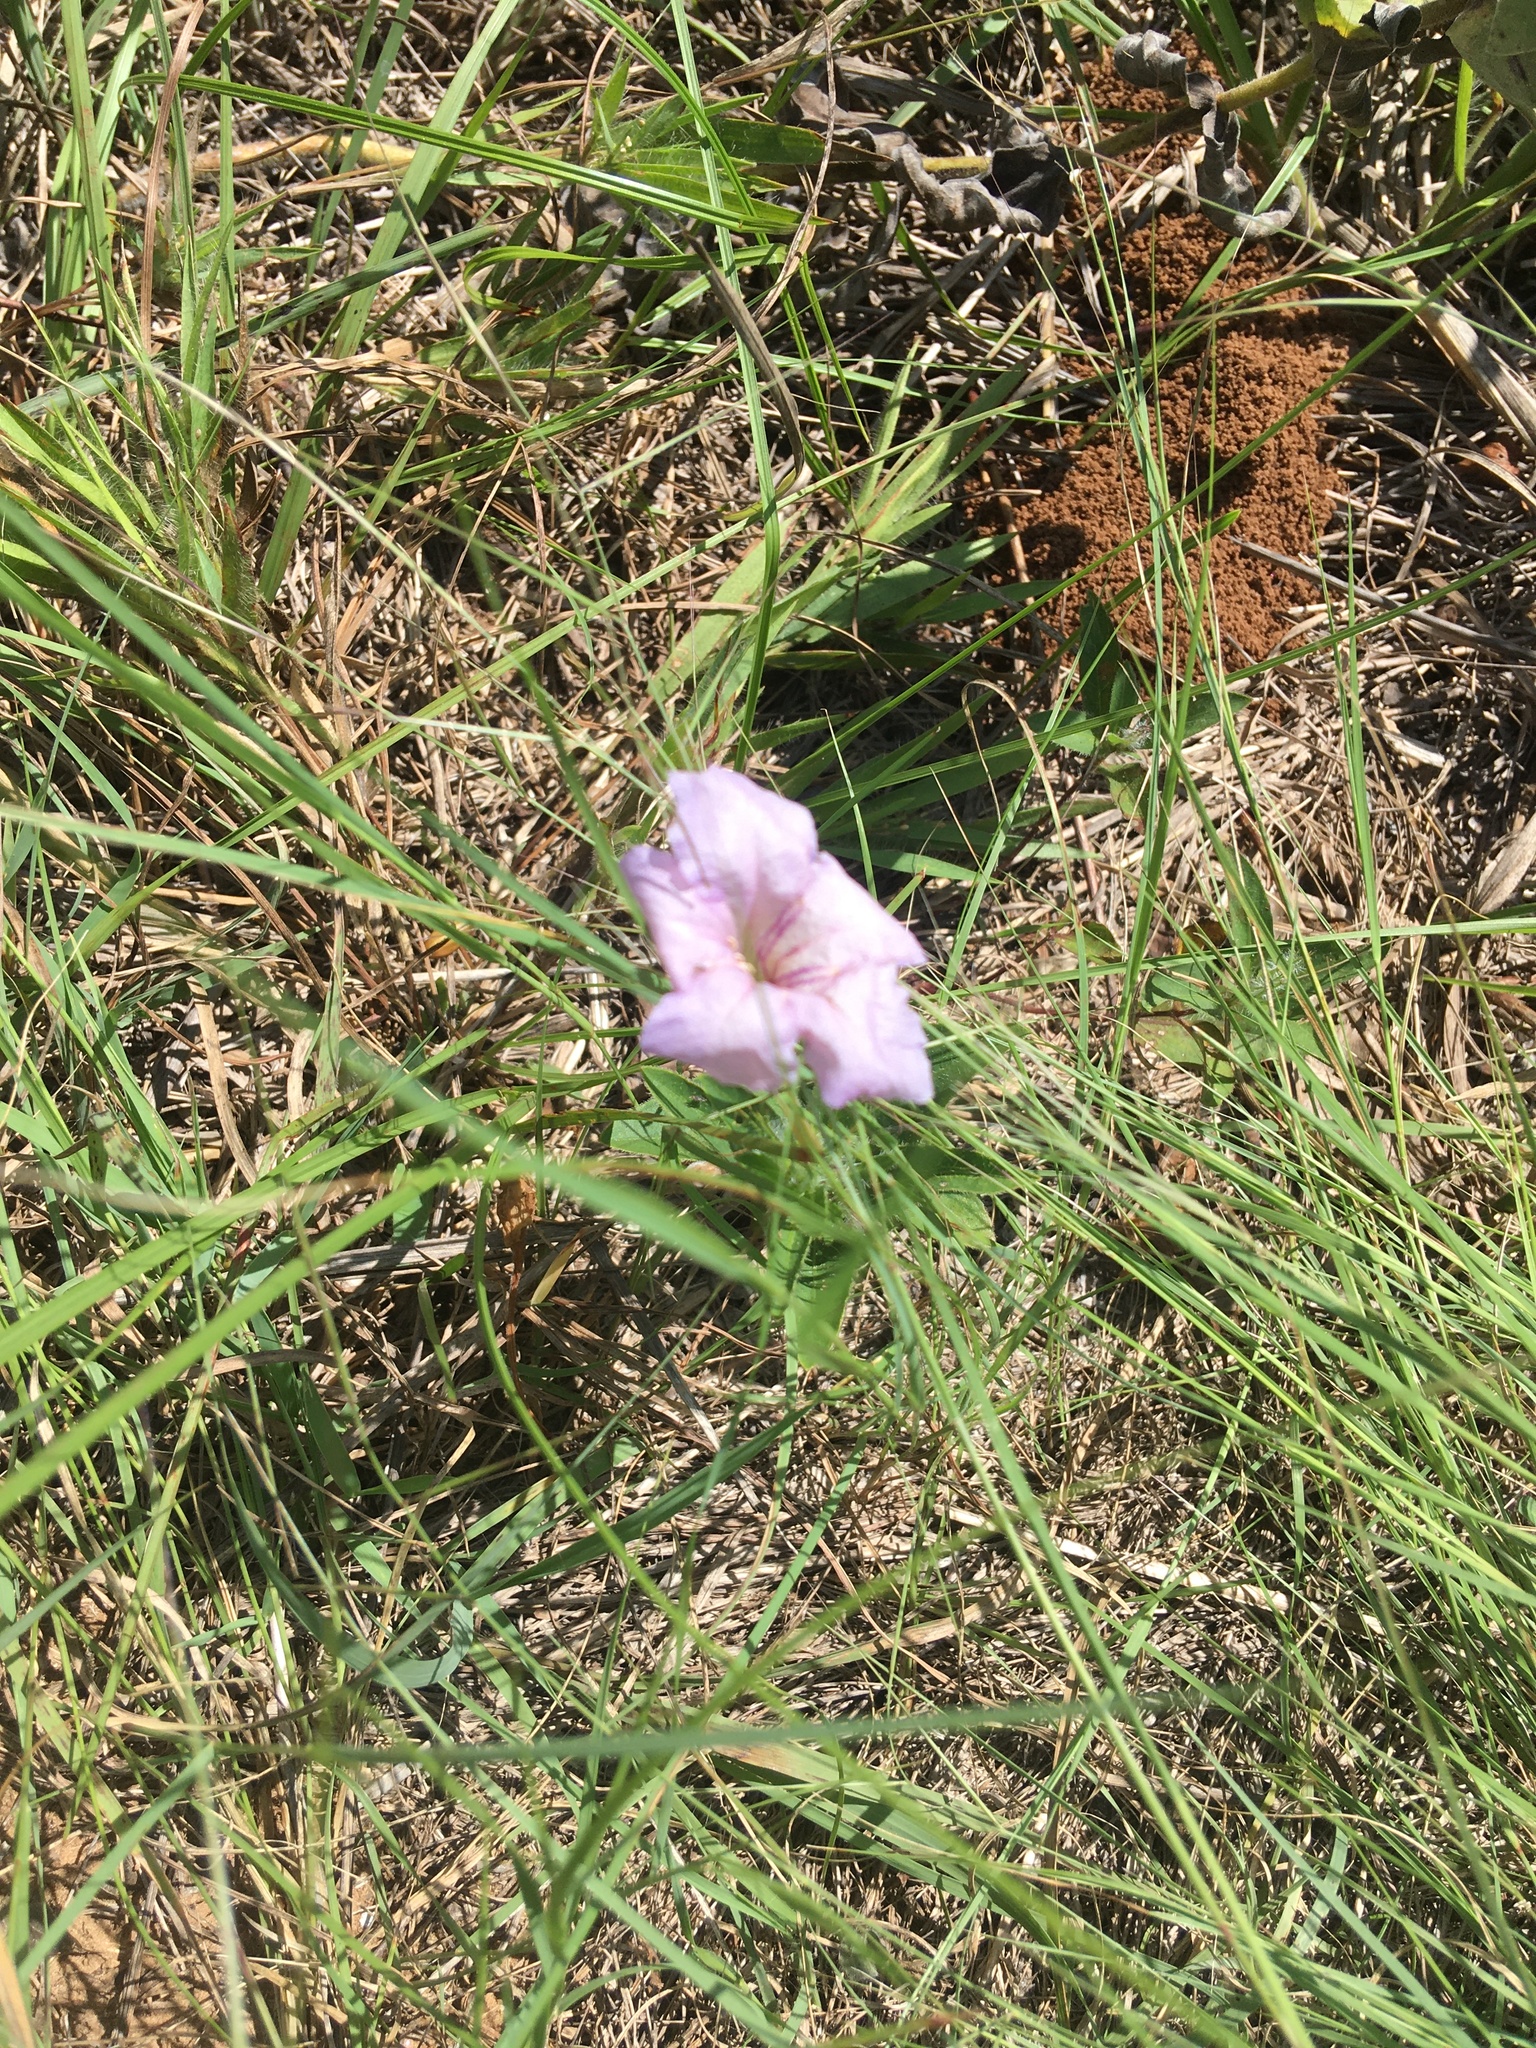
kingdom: Plantae
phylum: Tracheophyta
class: Magnoliopsida
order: Lamiales
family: Acanthaceae
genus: Ruellia
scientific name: Ruellia humilis
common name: Fringe-leaf ruellia
